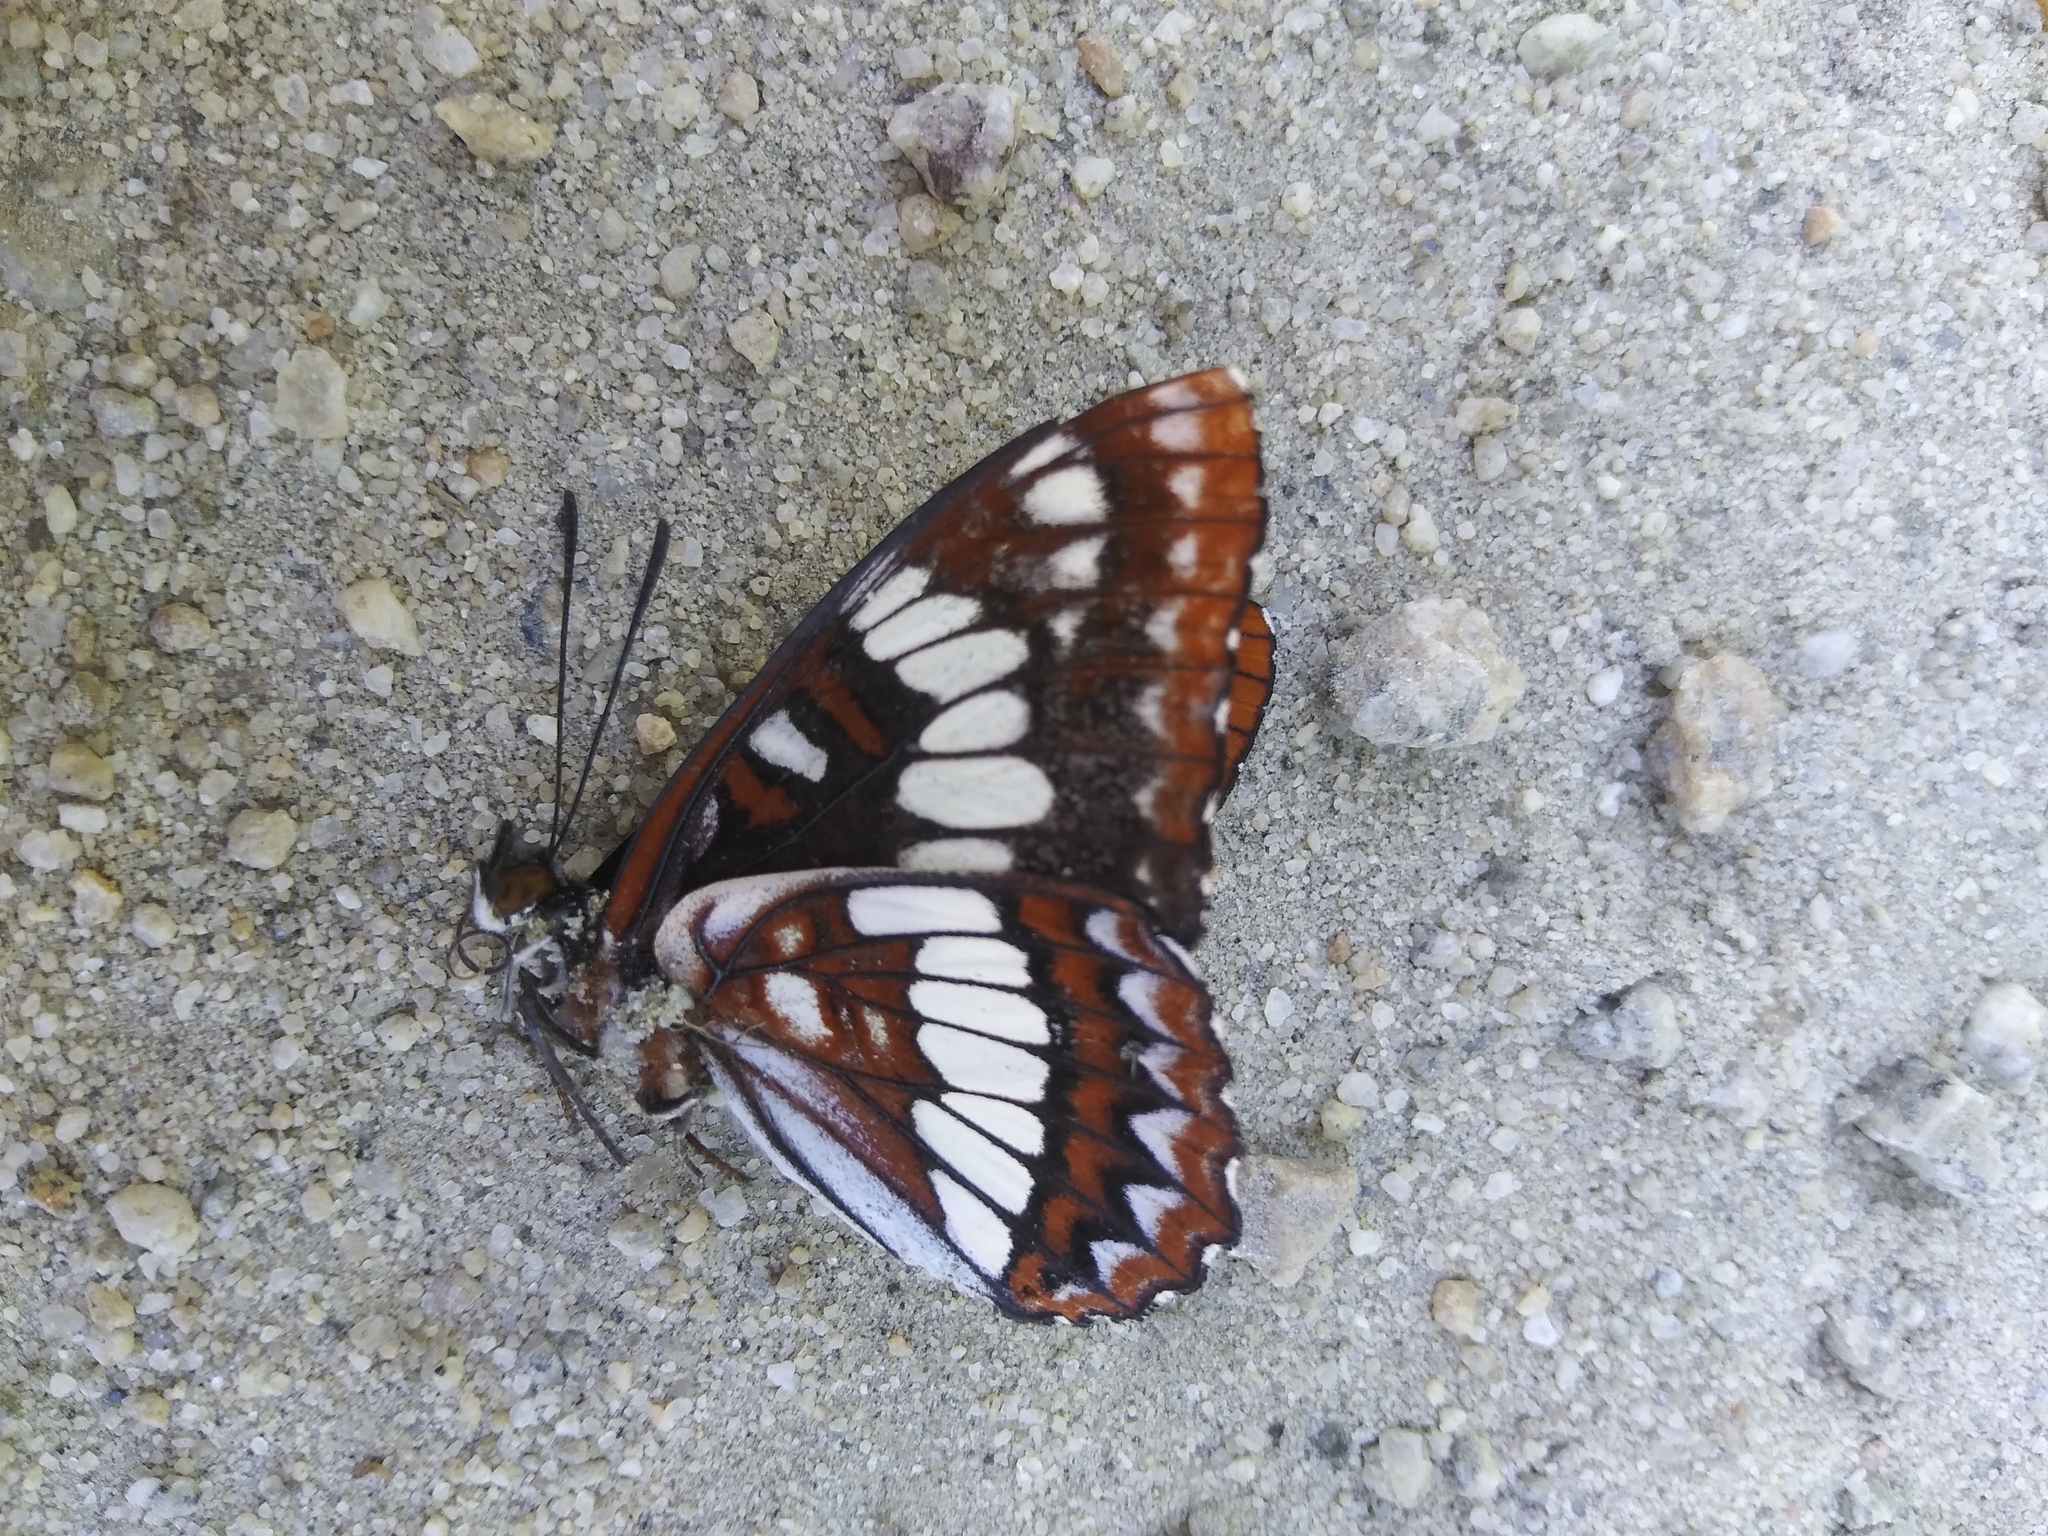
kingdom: Animalia
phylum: Arthropoda
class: Insecta
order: Lepidoptera
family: Nymphalidae
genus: Limenitis
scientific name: Limenitis lorquini
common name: Lorquin's admiral
